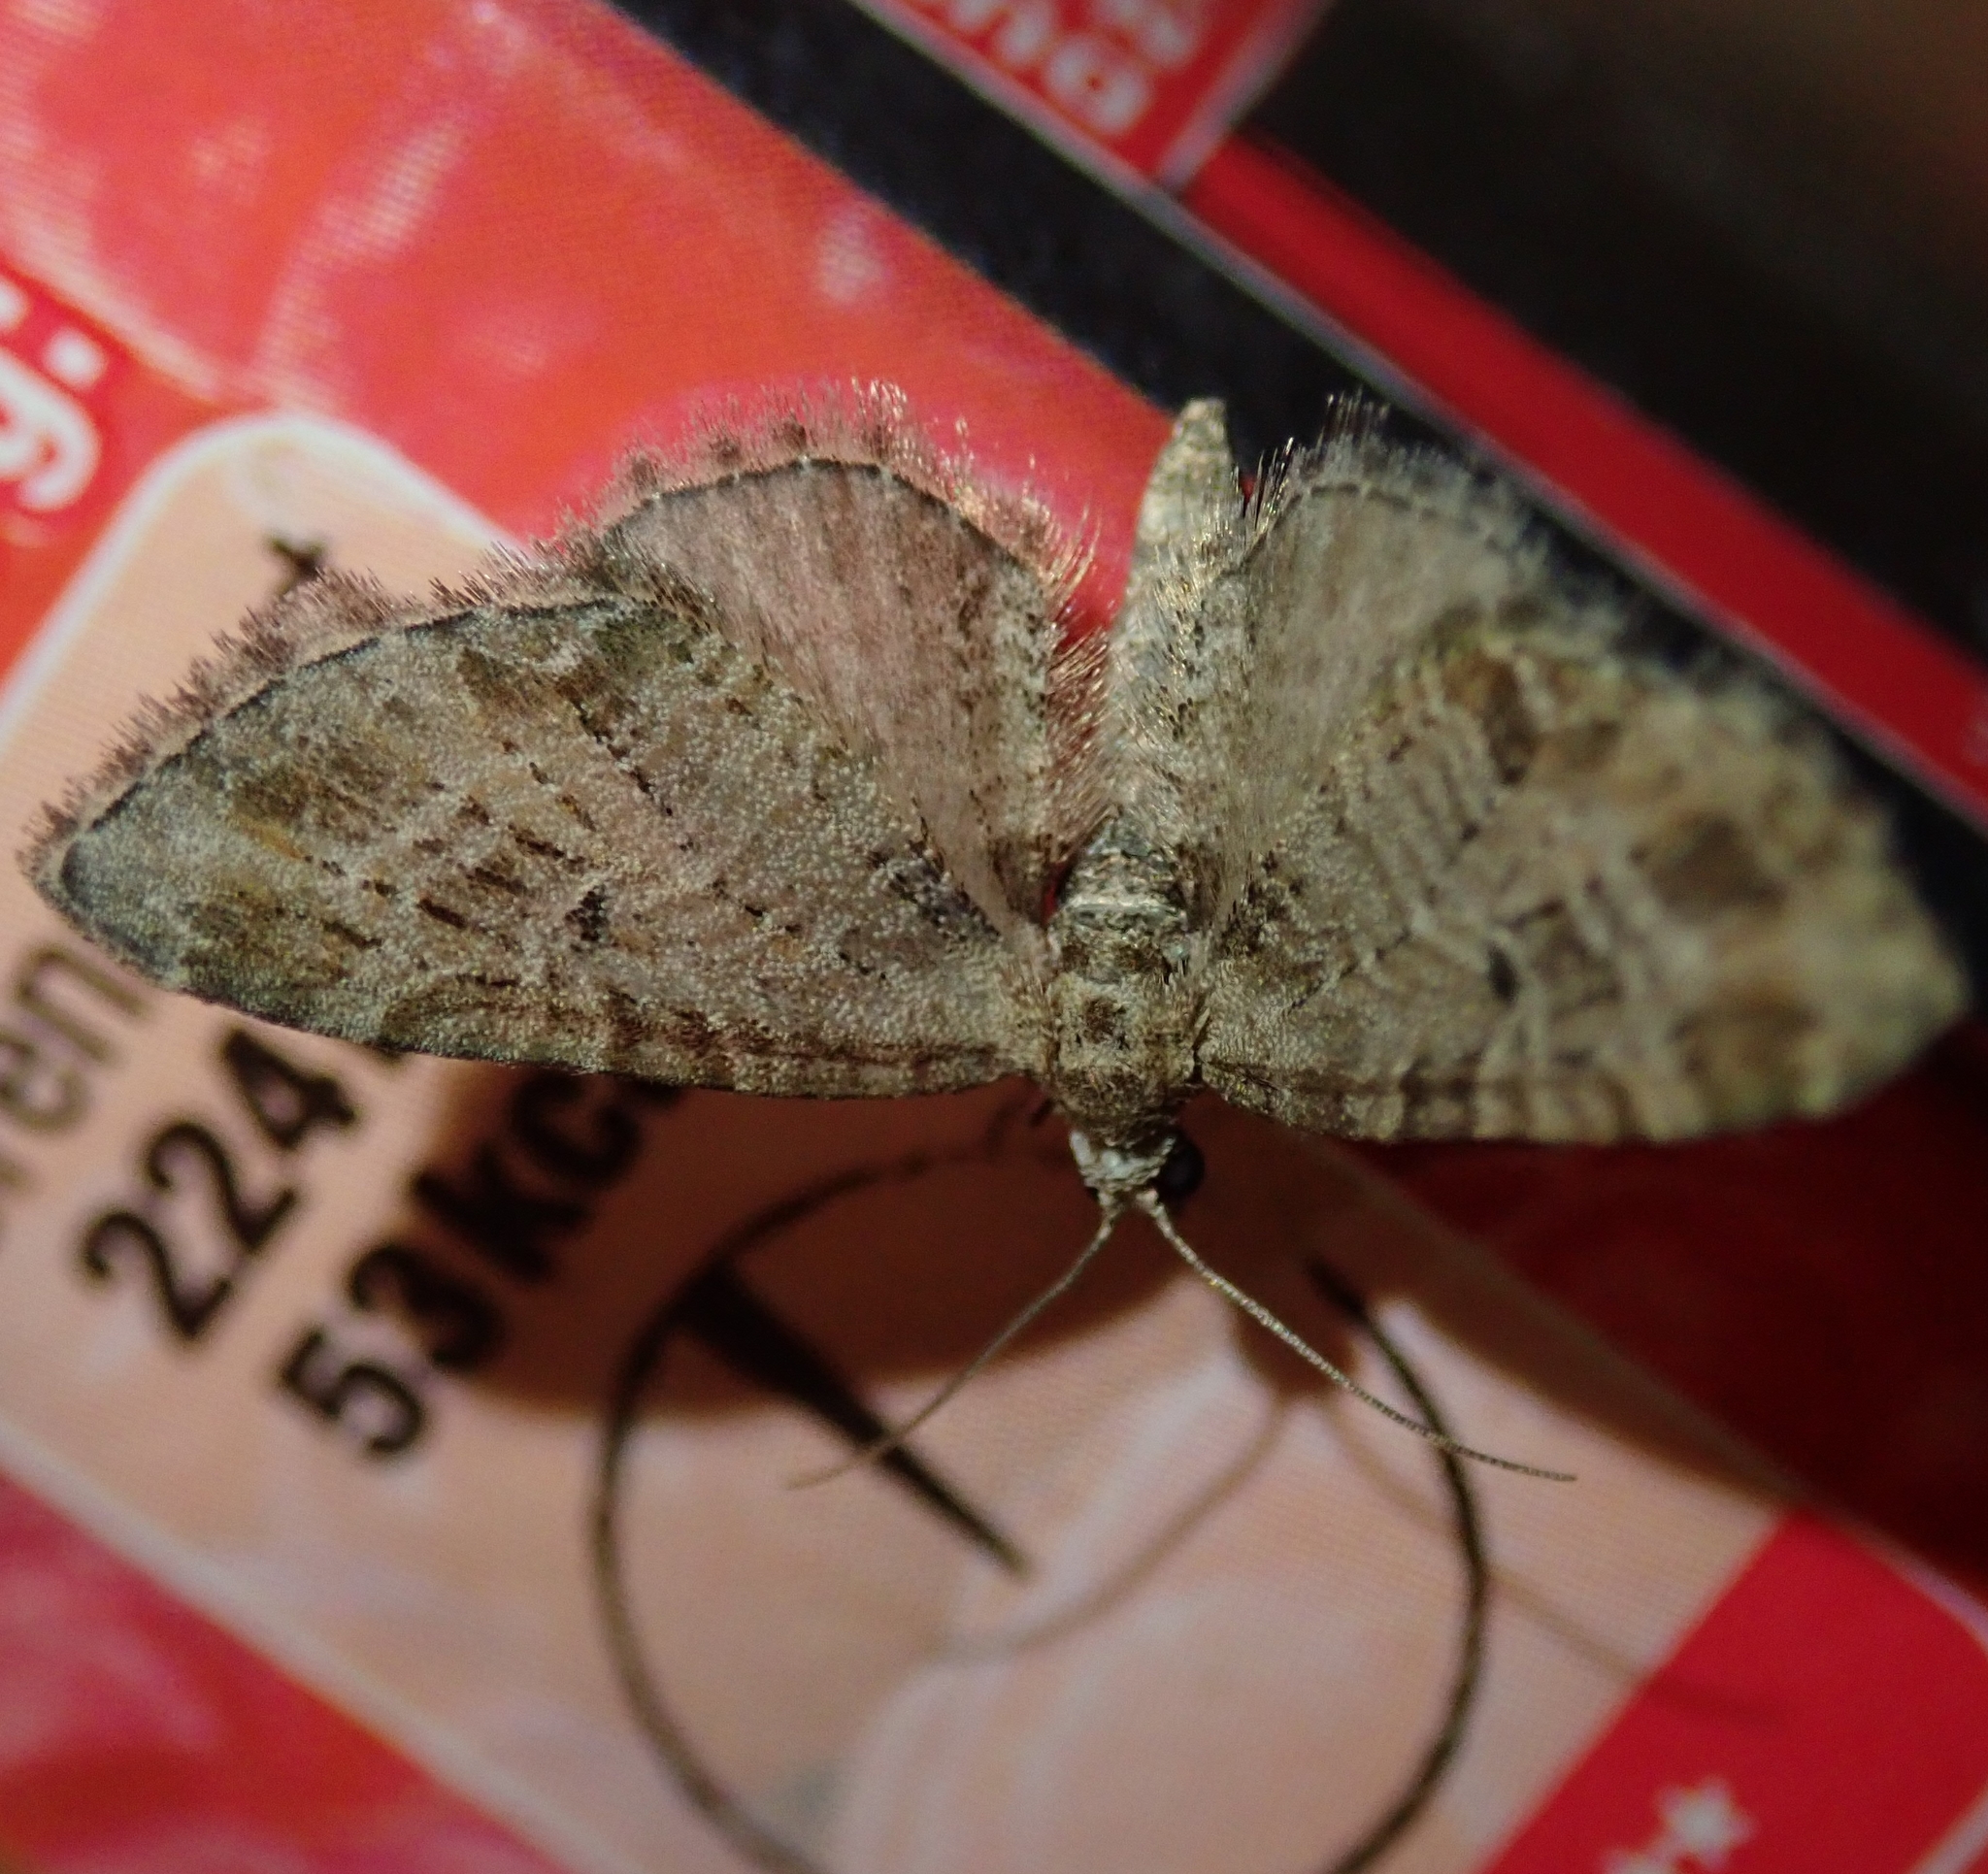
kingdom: Animalia
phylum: Arthropoda
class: Insecta
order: Lepidoptera
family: Geometridae
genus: Eupithecia
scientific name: Eupithecia exiguata
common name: Mottled pug
